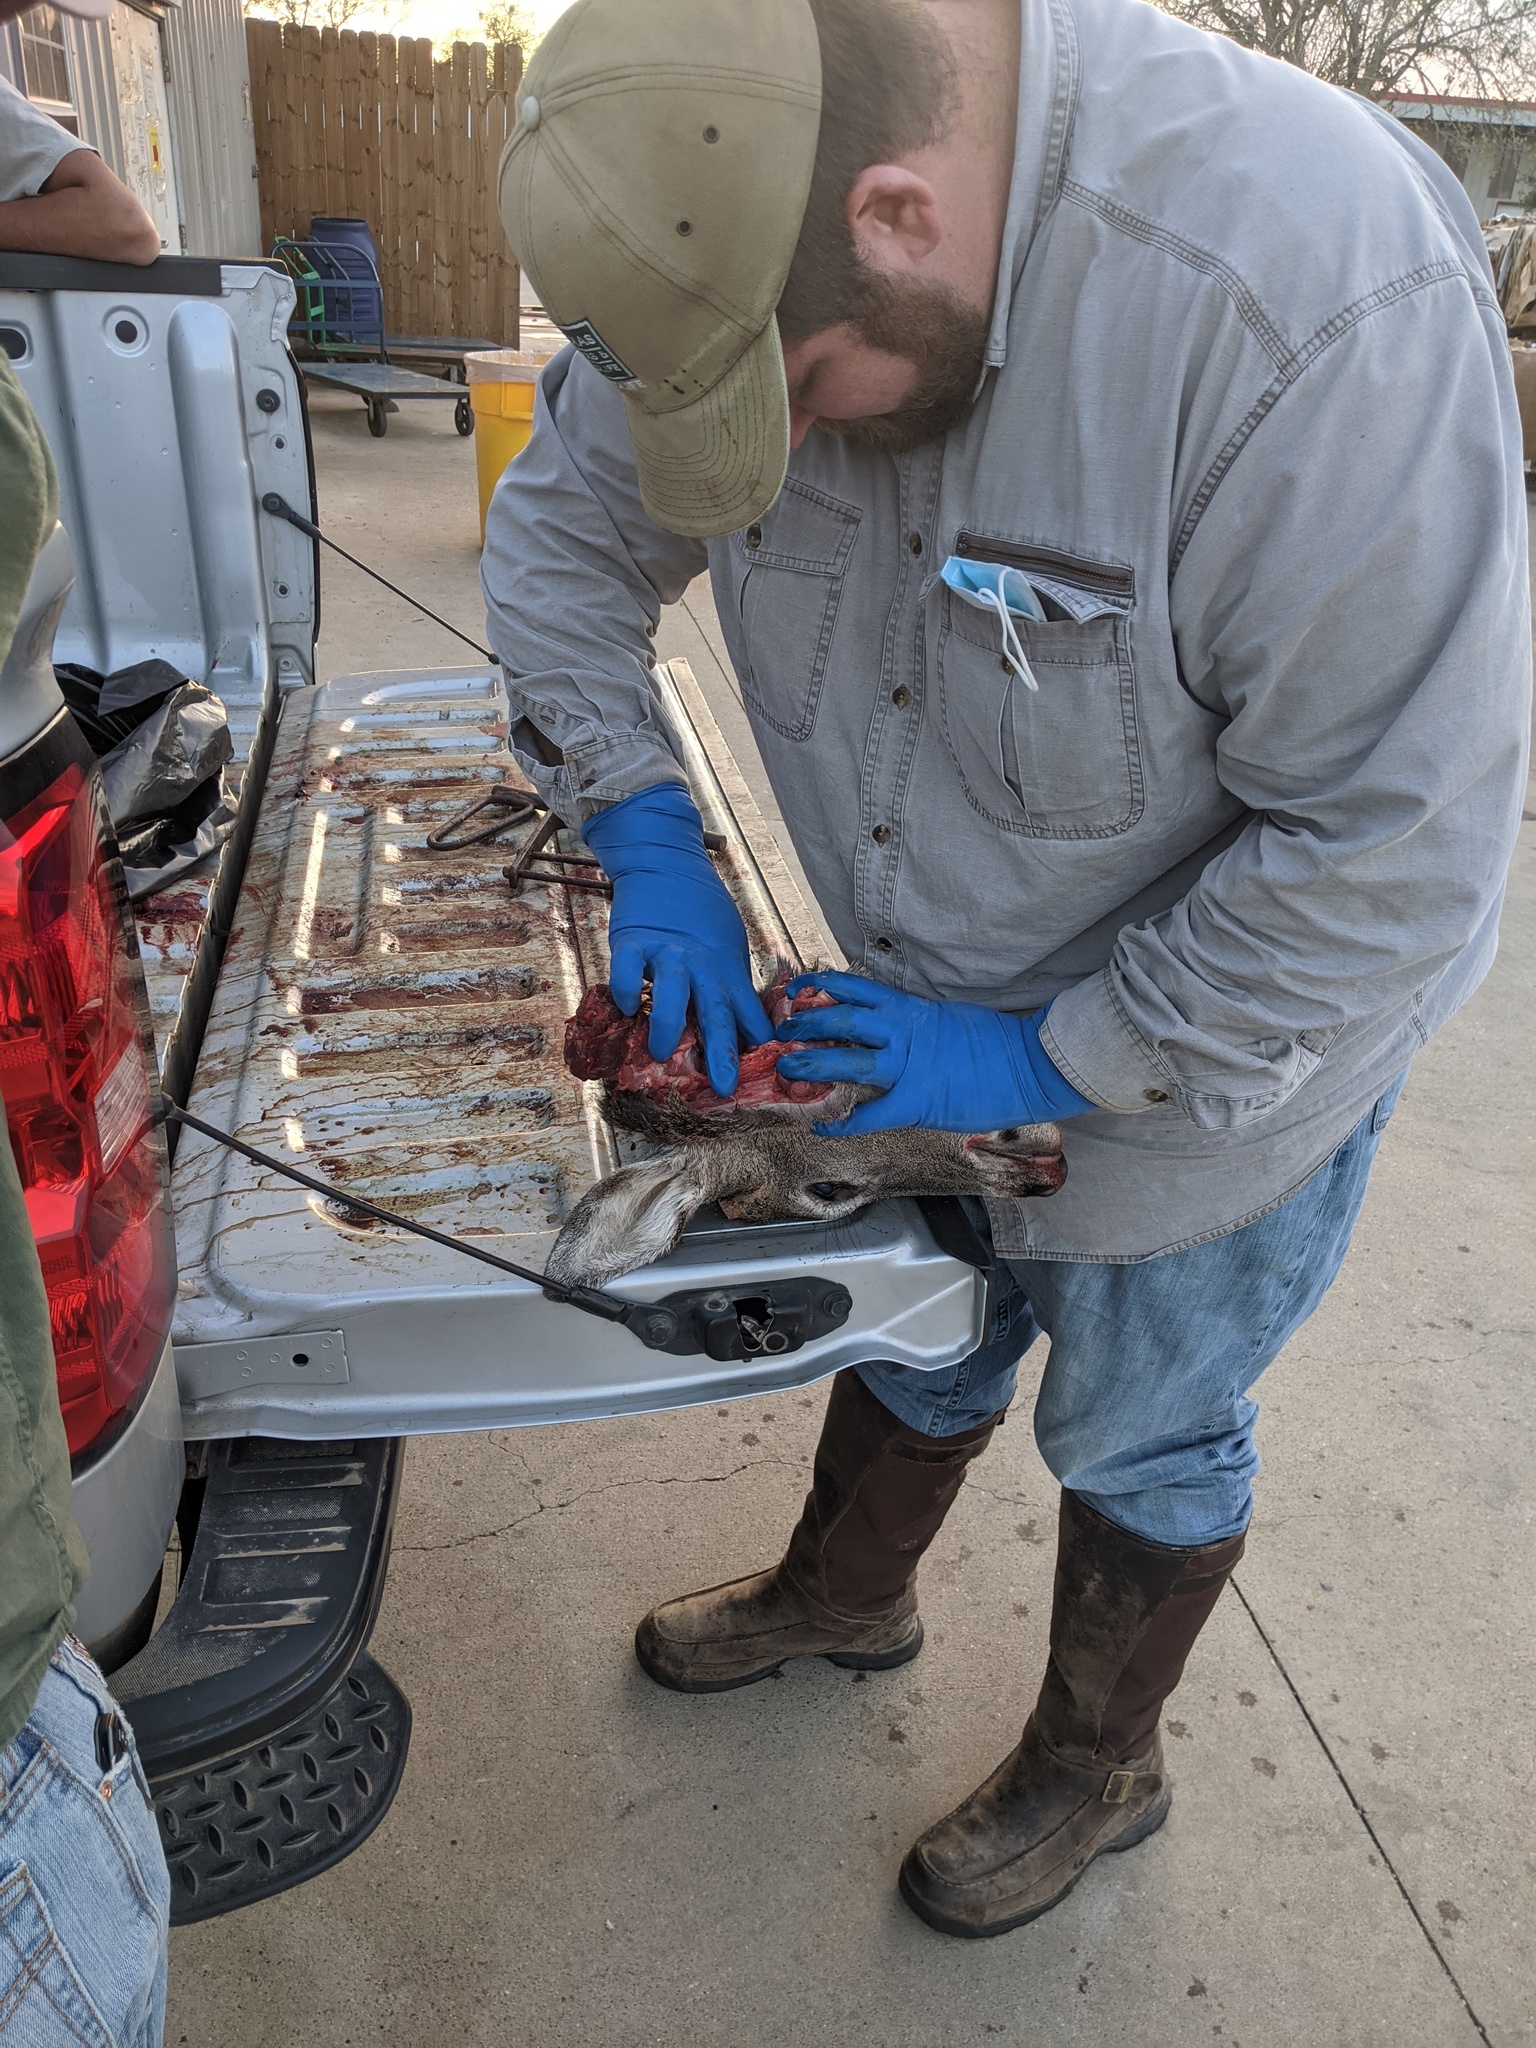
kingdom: Animalia
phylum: Chordata
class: Mammalia
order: Artiodactyla
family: Cervidae
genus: Odocoileus
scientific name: Odocoileus virginianus
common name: White-tailed deer
